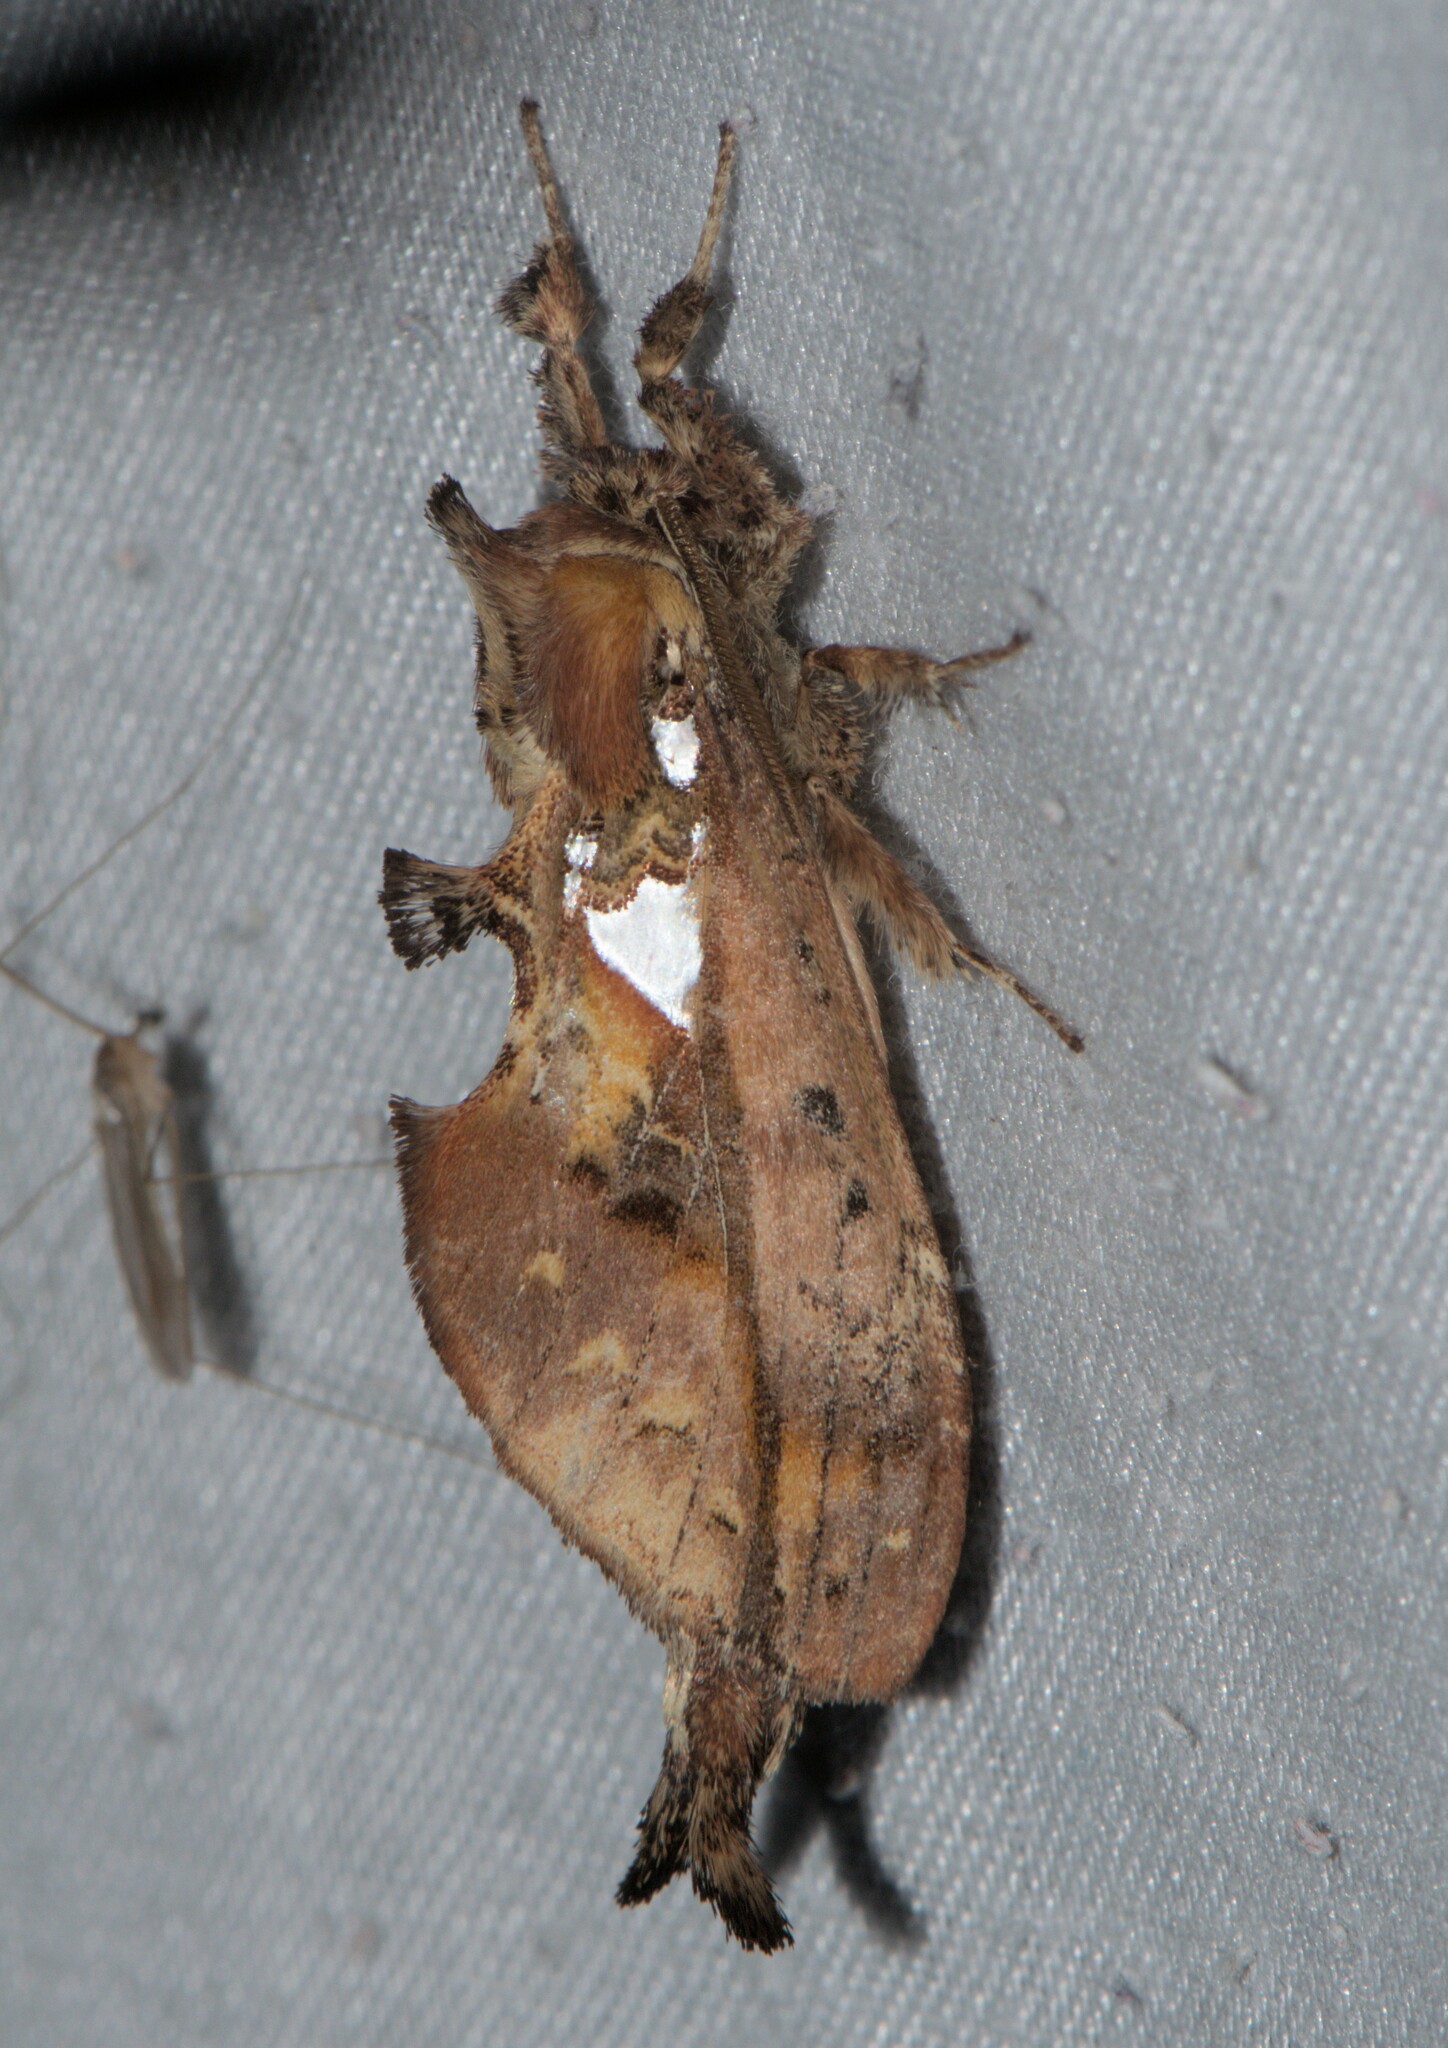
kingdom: Animalia
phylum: Arthropoda
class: Insecta
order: Lepidoptera
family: Notodontidae
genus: Ginshachia
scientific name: Ginshachia gemmifera
